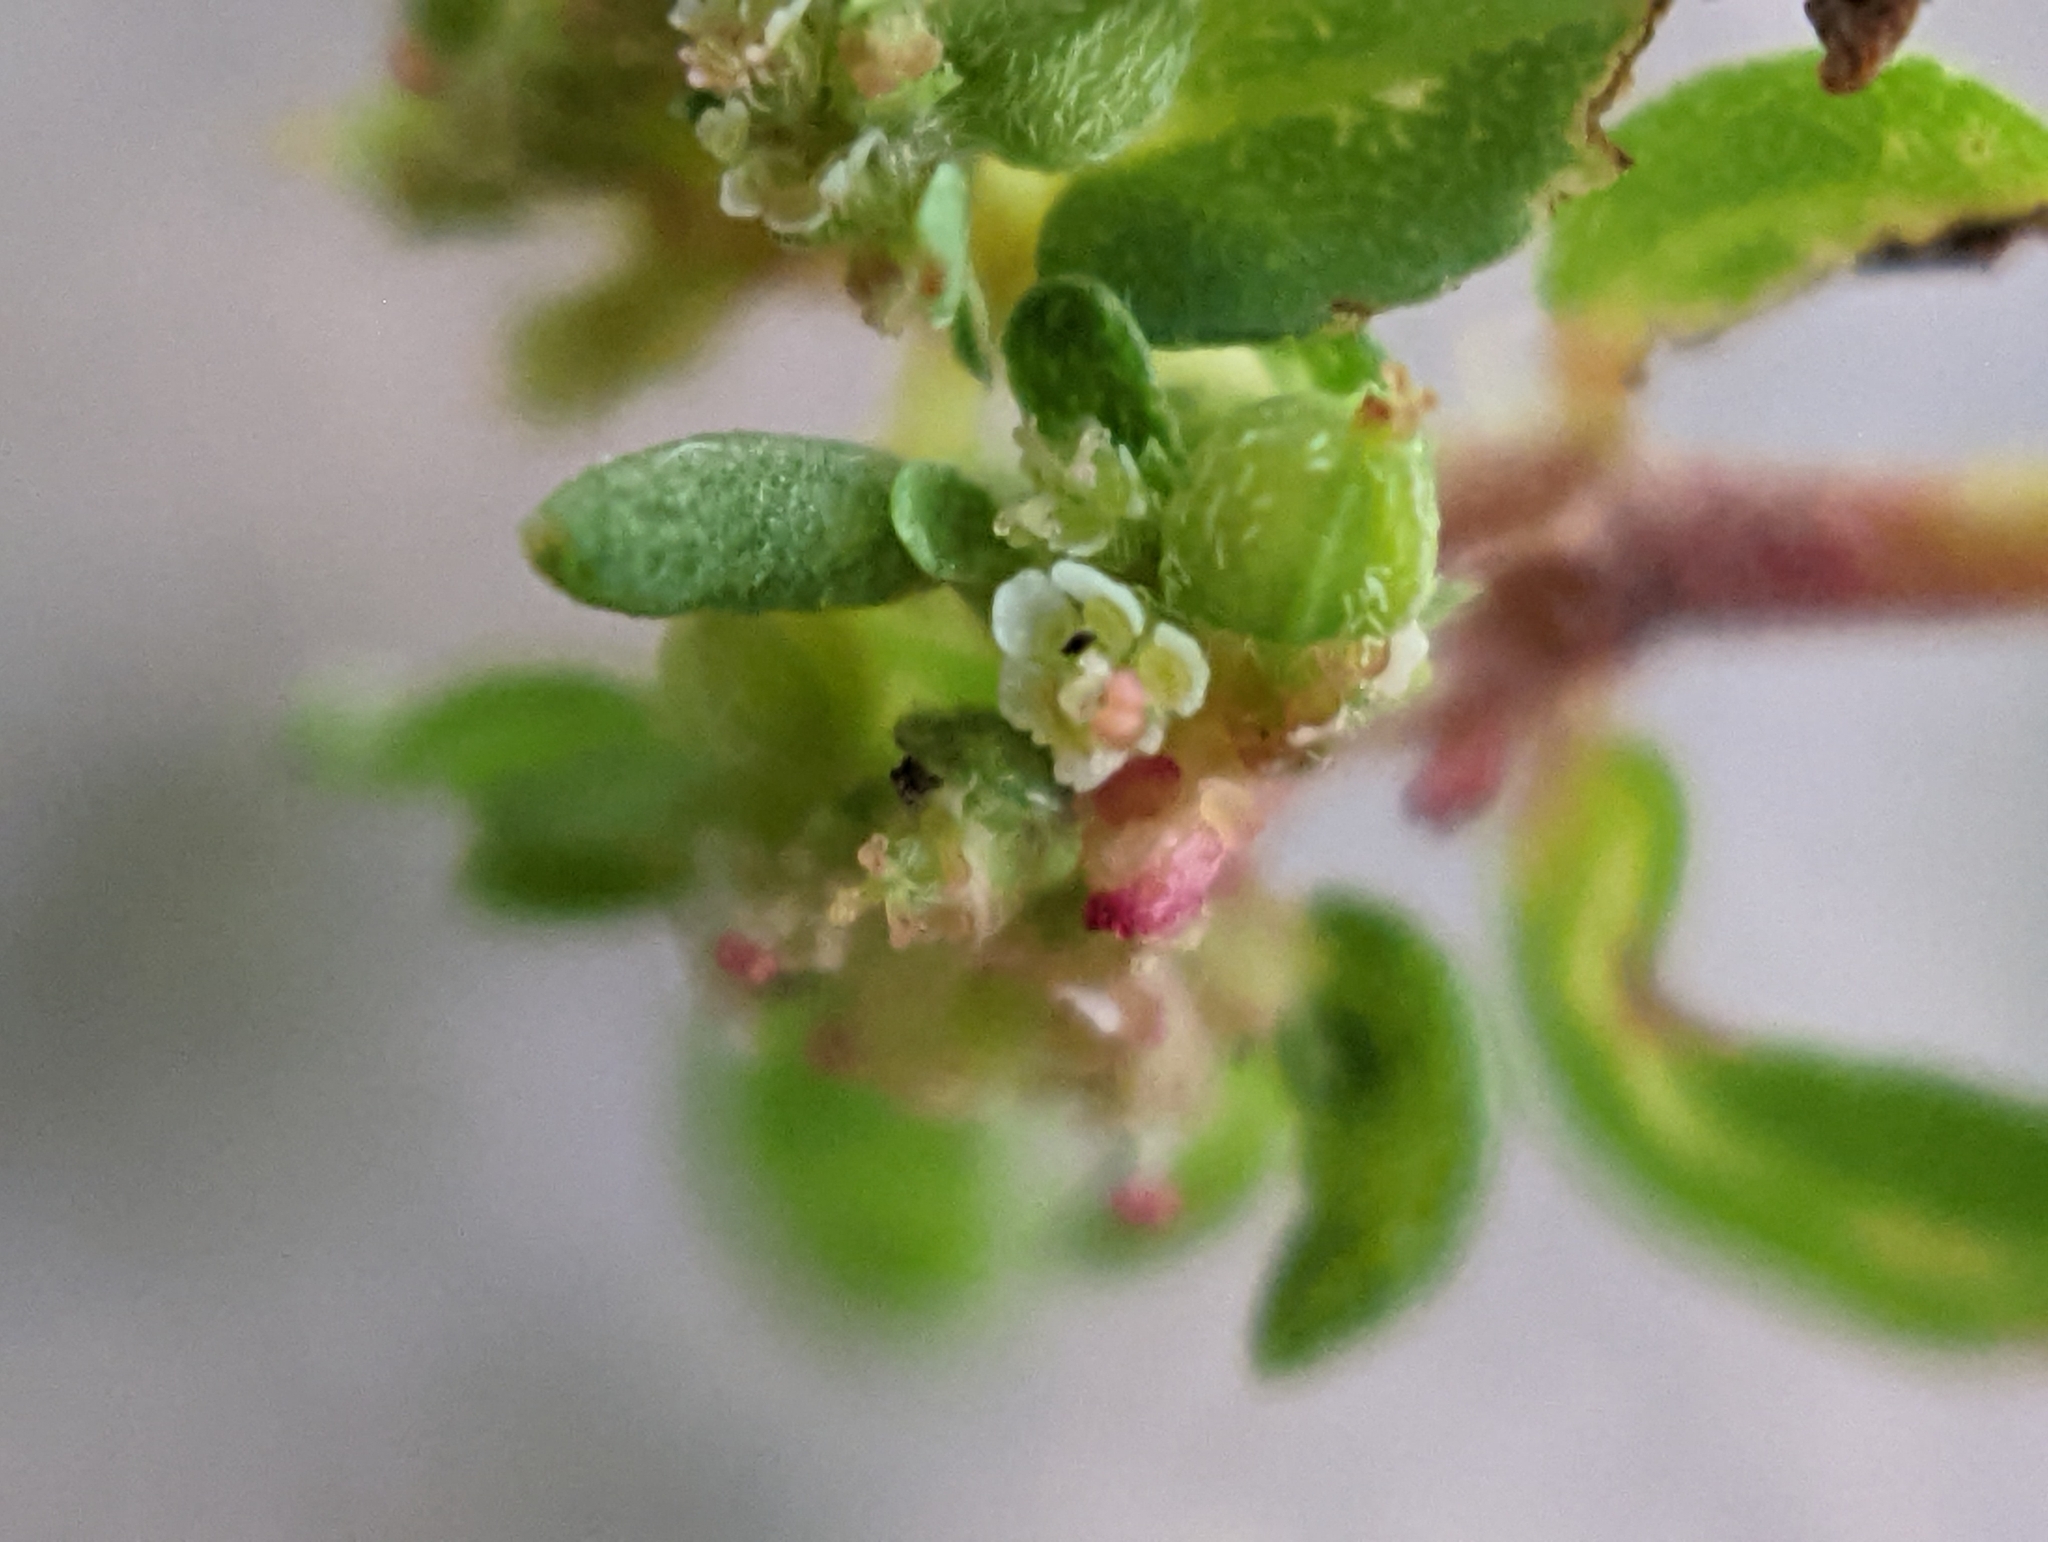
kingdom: Plantae
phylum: Tracheophyta
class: Magnoliopsida
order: Malpighiales
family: Euphorbiaceae
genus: Euphorbia
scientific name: Euphorbia maculata
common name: Spotted spurge
